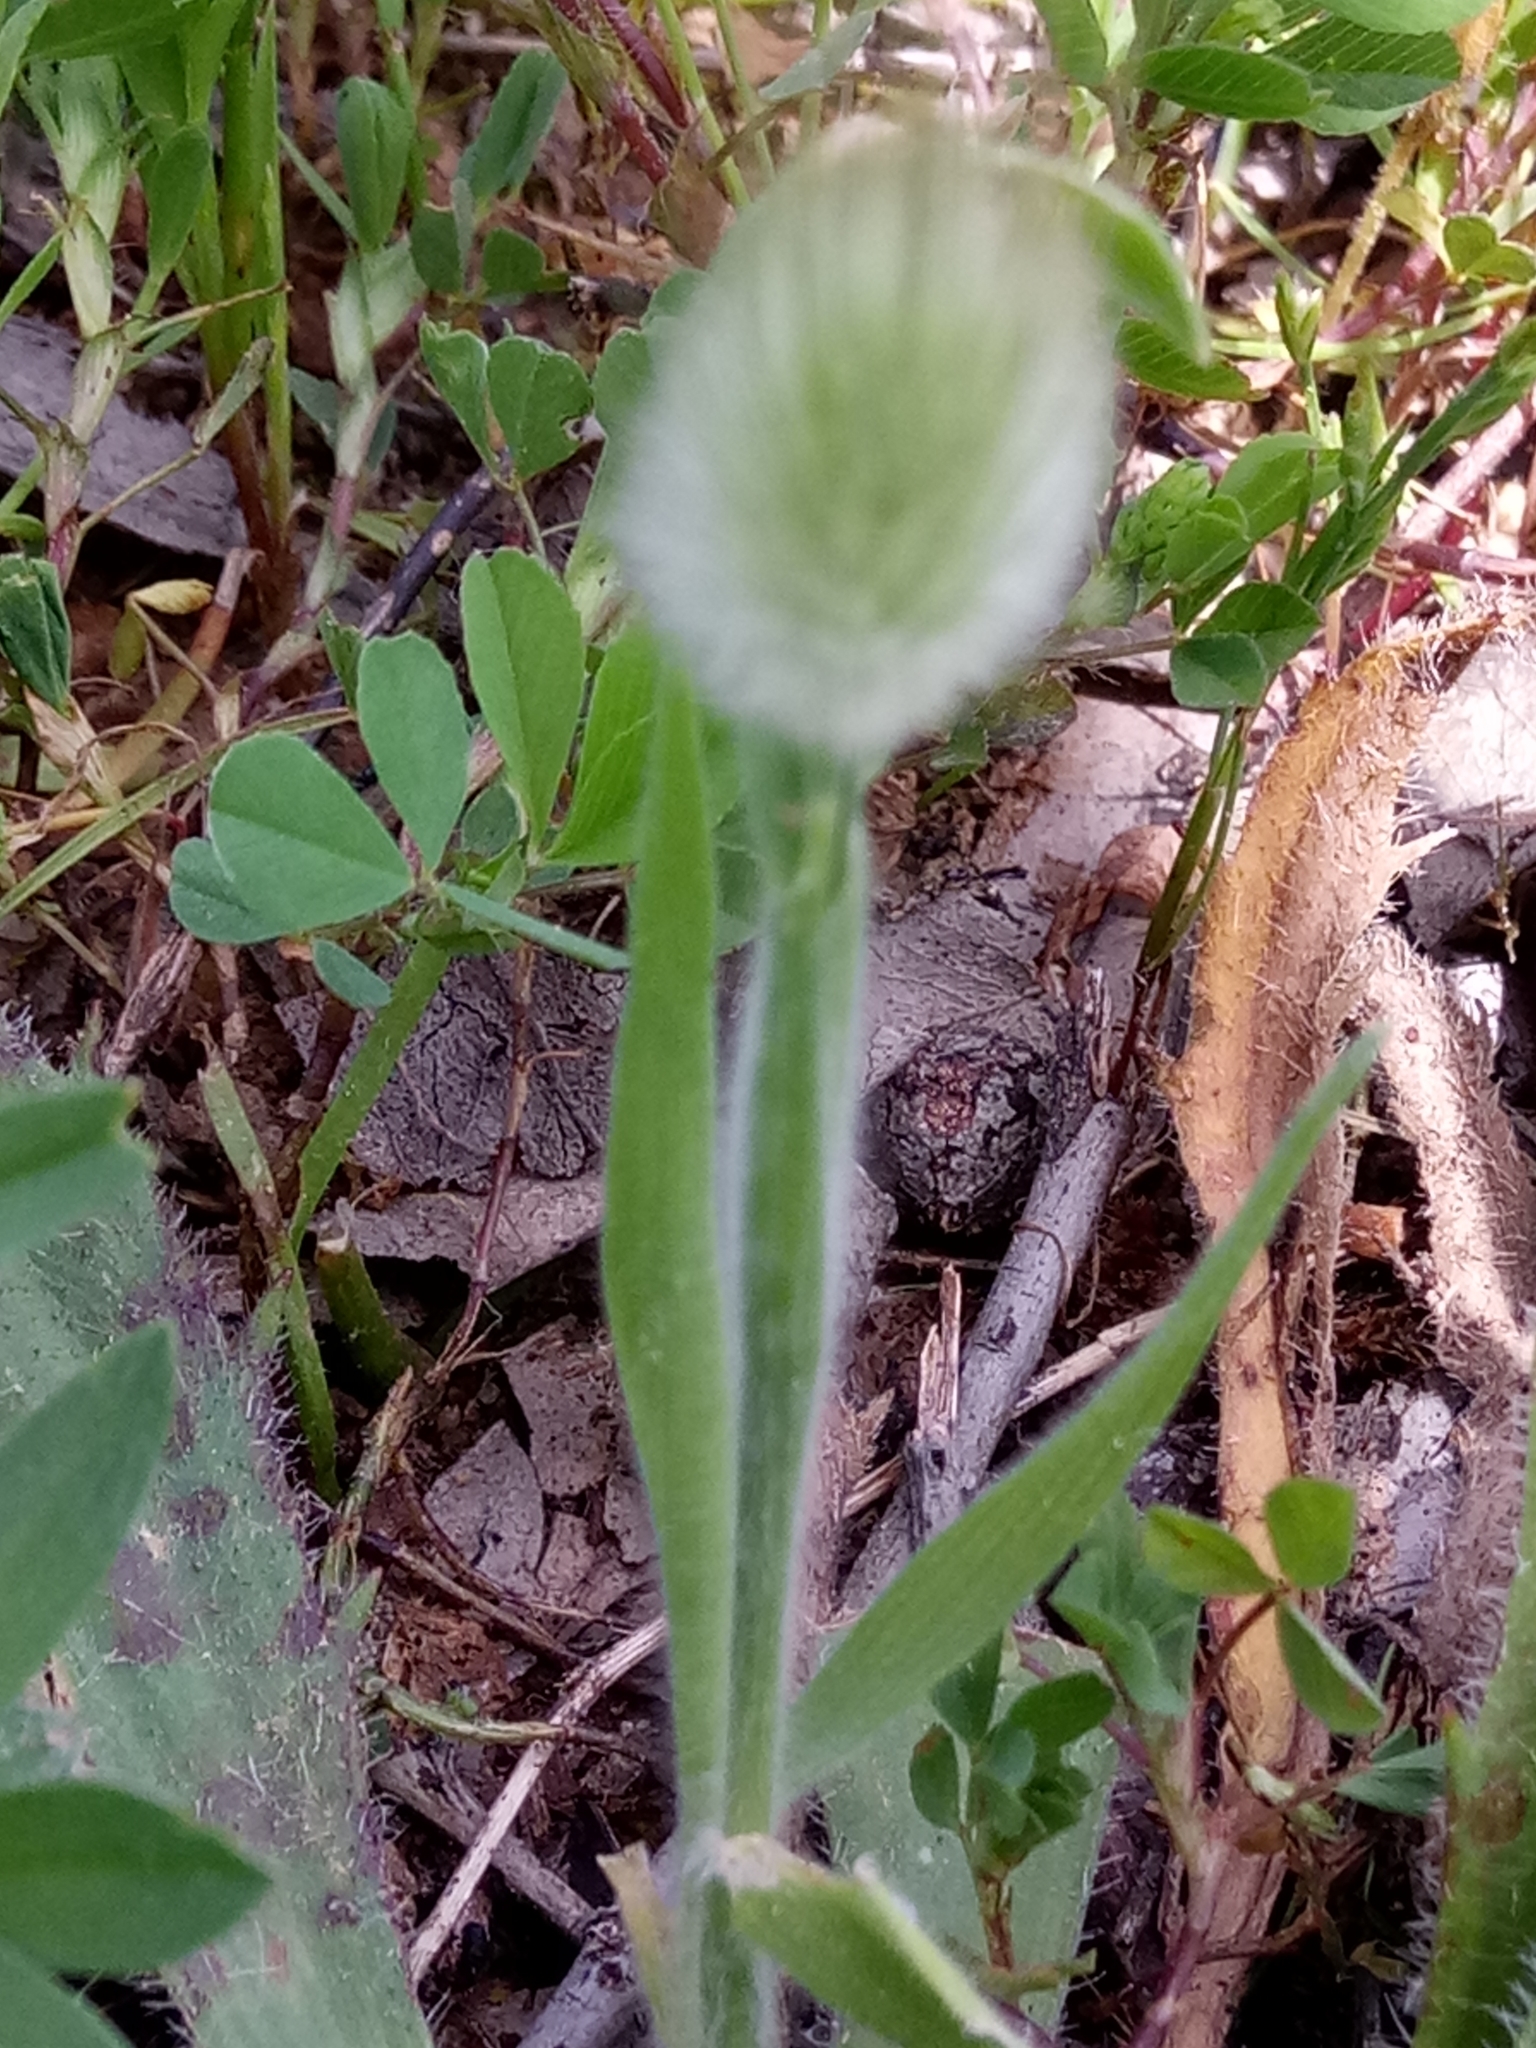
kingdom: Plantae
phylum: Tracheophyta
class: Liliopsida
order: Poales
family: Poaceae
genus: Lagurus
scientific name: Lagurus ovatus
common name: Hare's-tail
